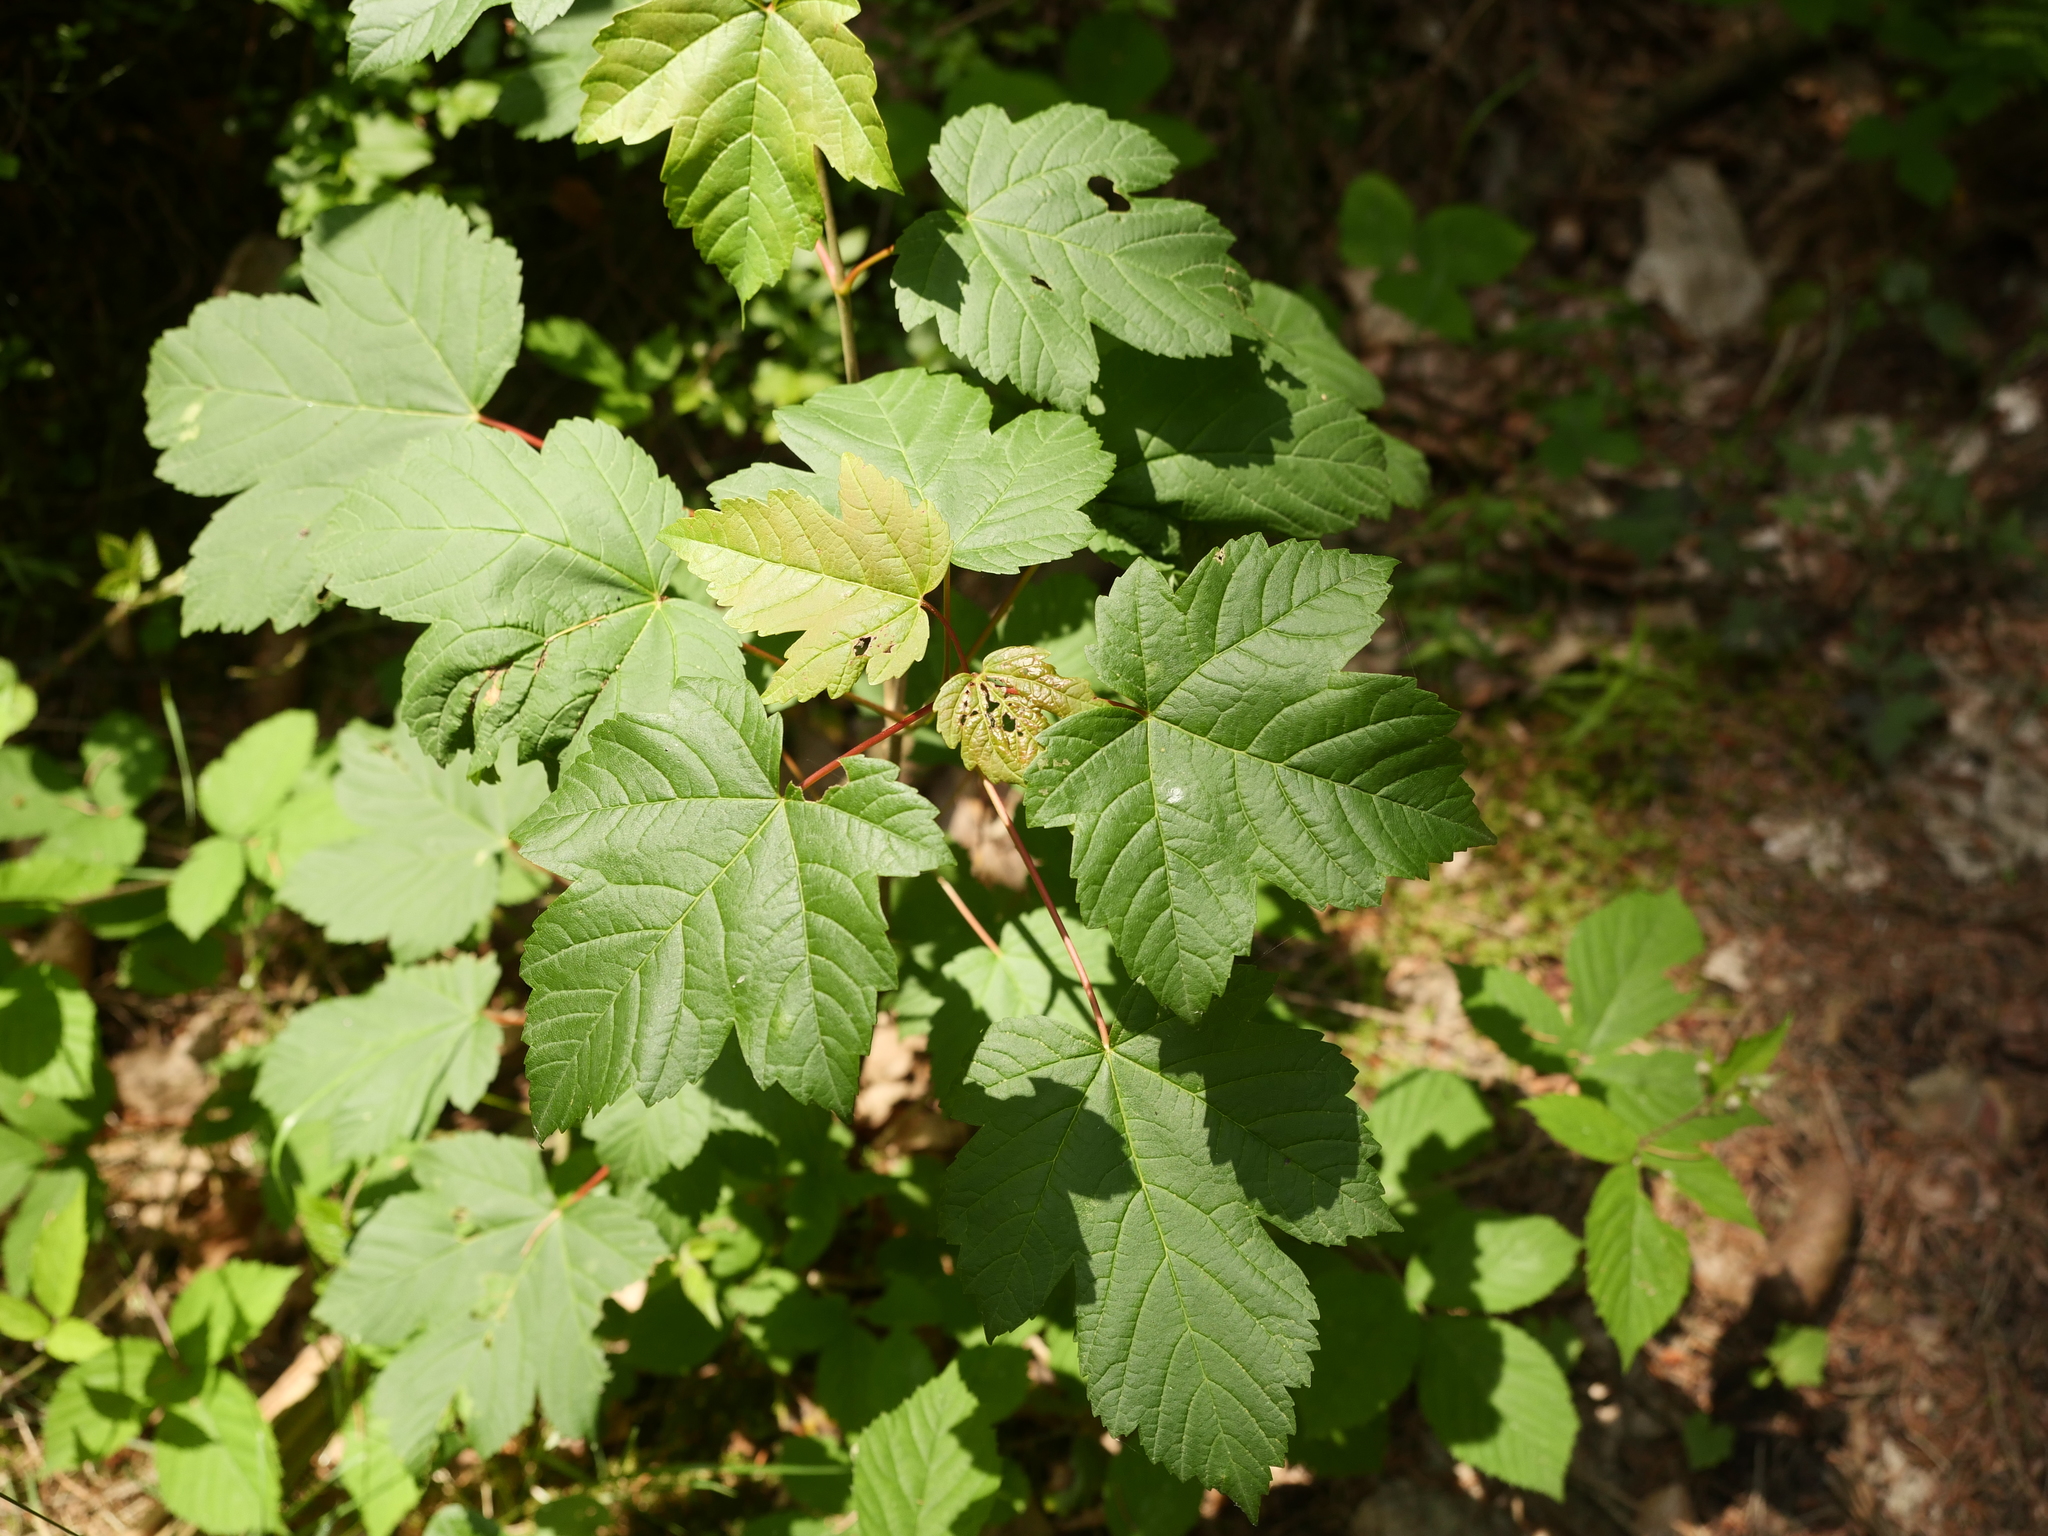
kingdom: Plantae
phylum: Tracheophyta
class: Magnoliopsida
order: Sapindales
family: Sapindaceae
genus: Acer
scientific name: Acer pseudoplatanus
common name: Sycamore
